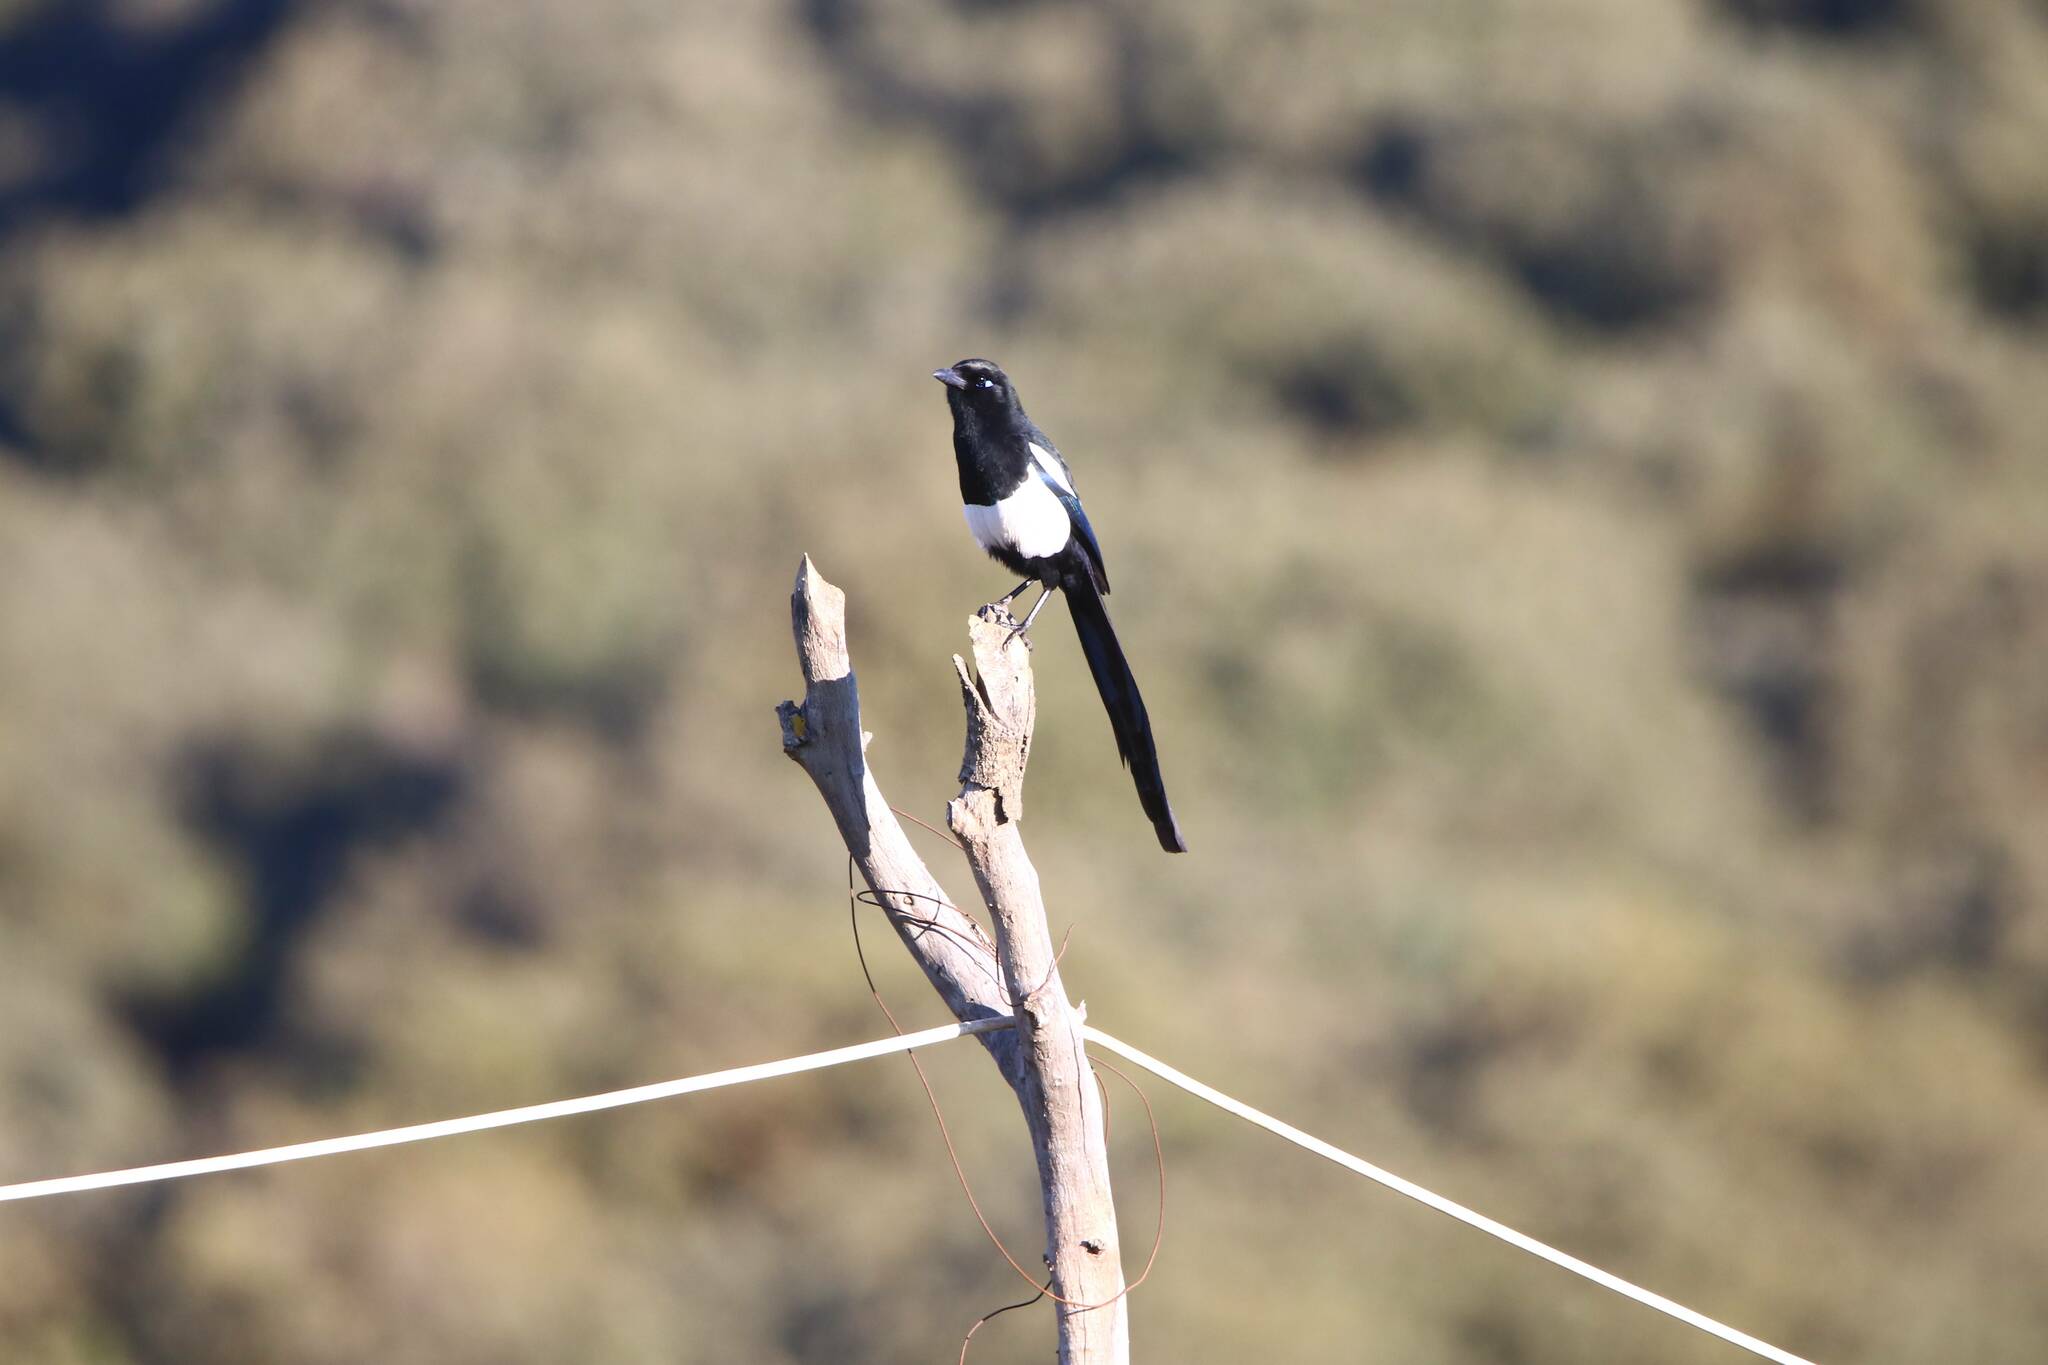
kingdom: Animalia
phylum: Chordata
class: Aves
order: Passeriformes
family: Corvidae
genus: Pica
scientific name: Pica mauritanica
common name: Maghreb magpie
